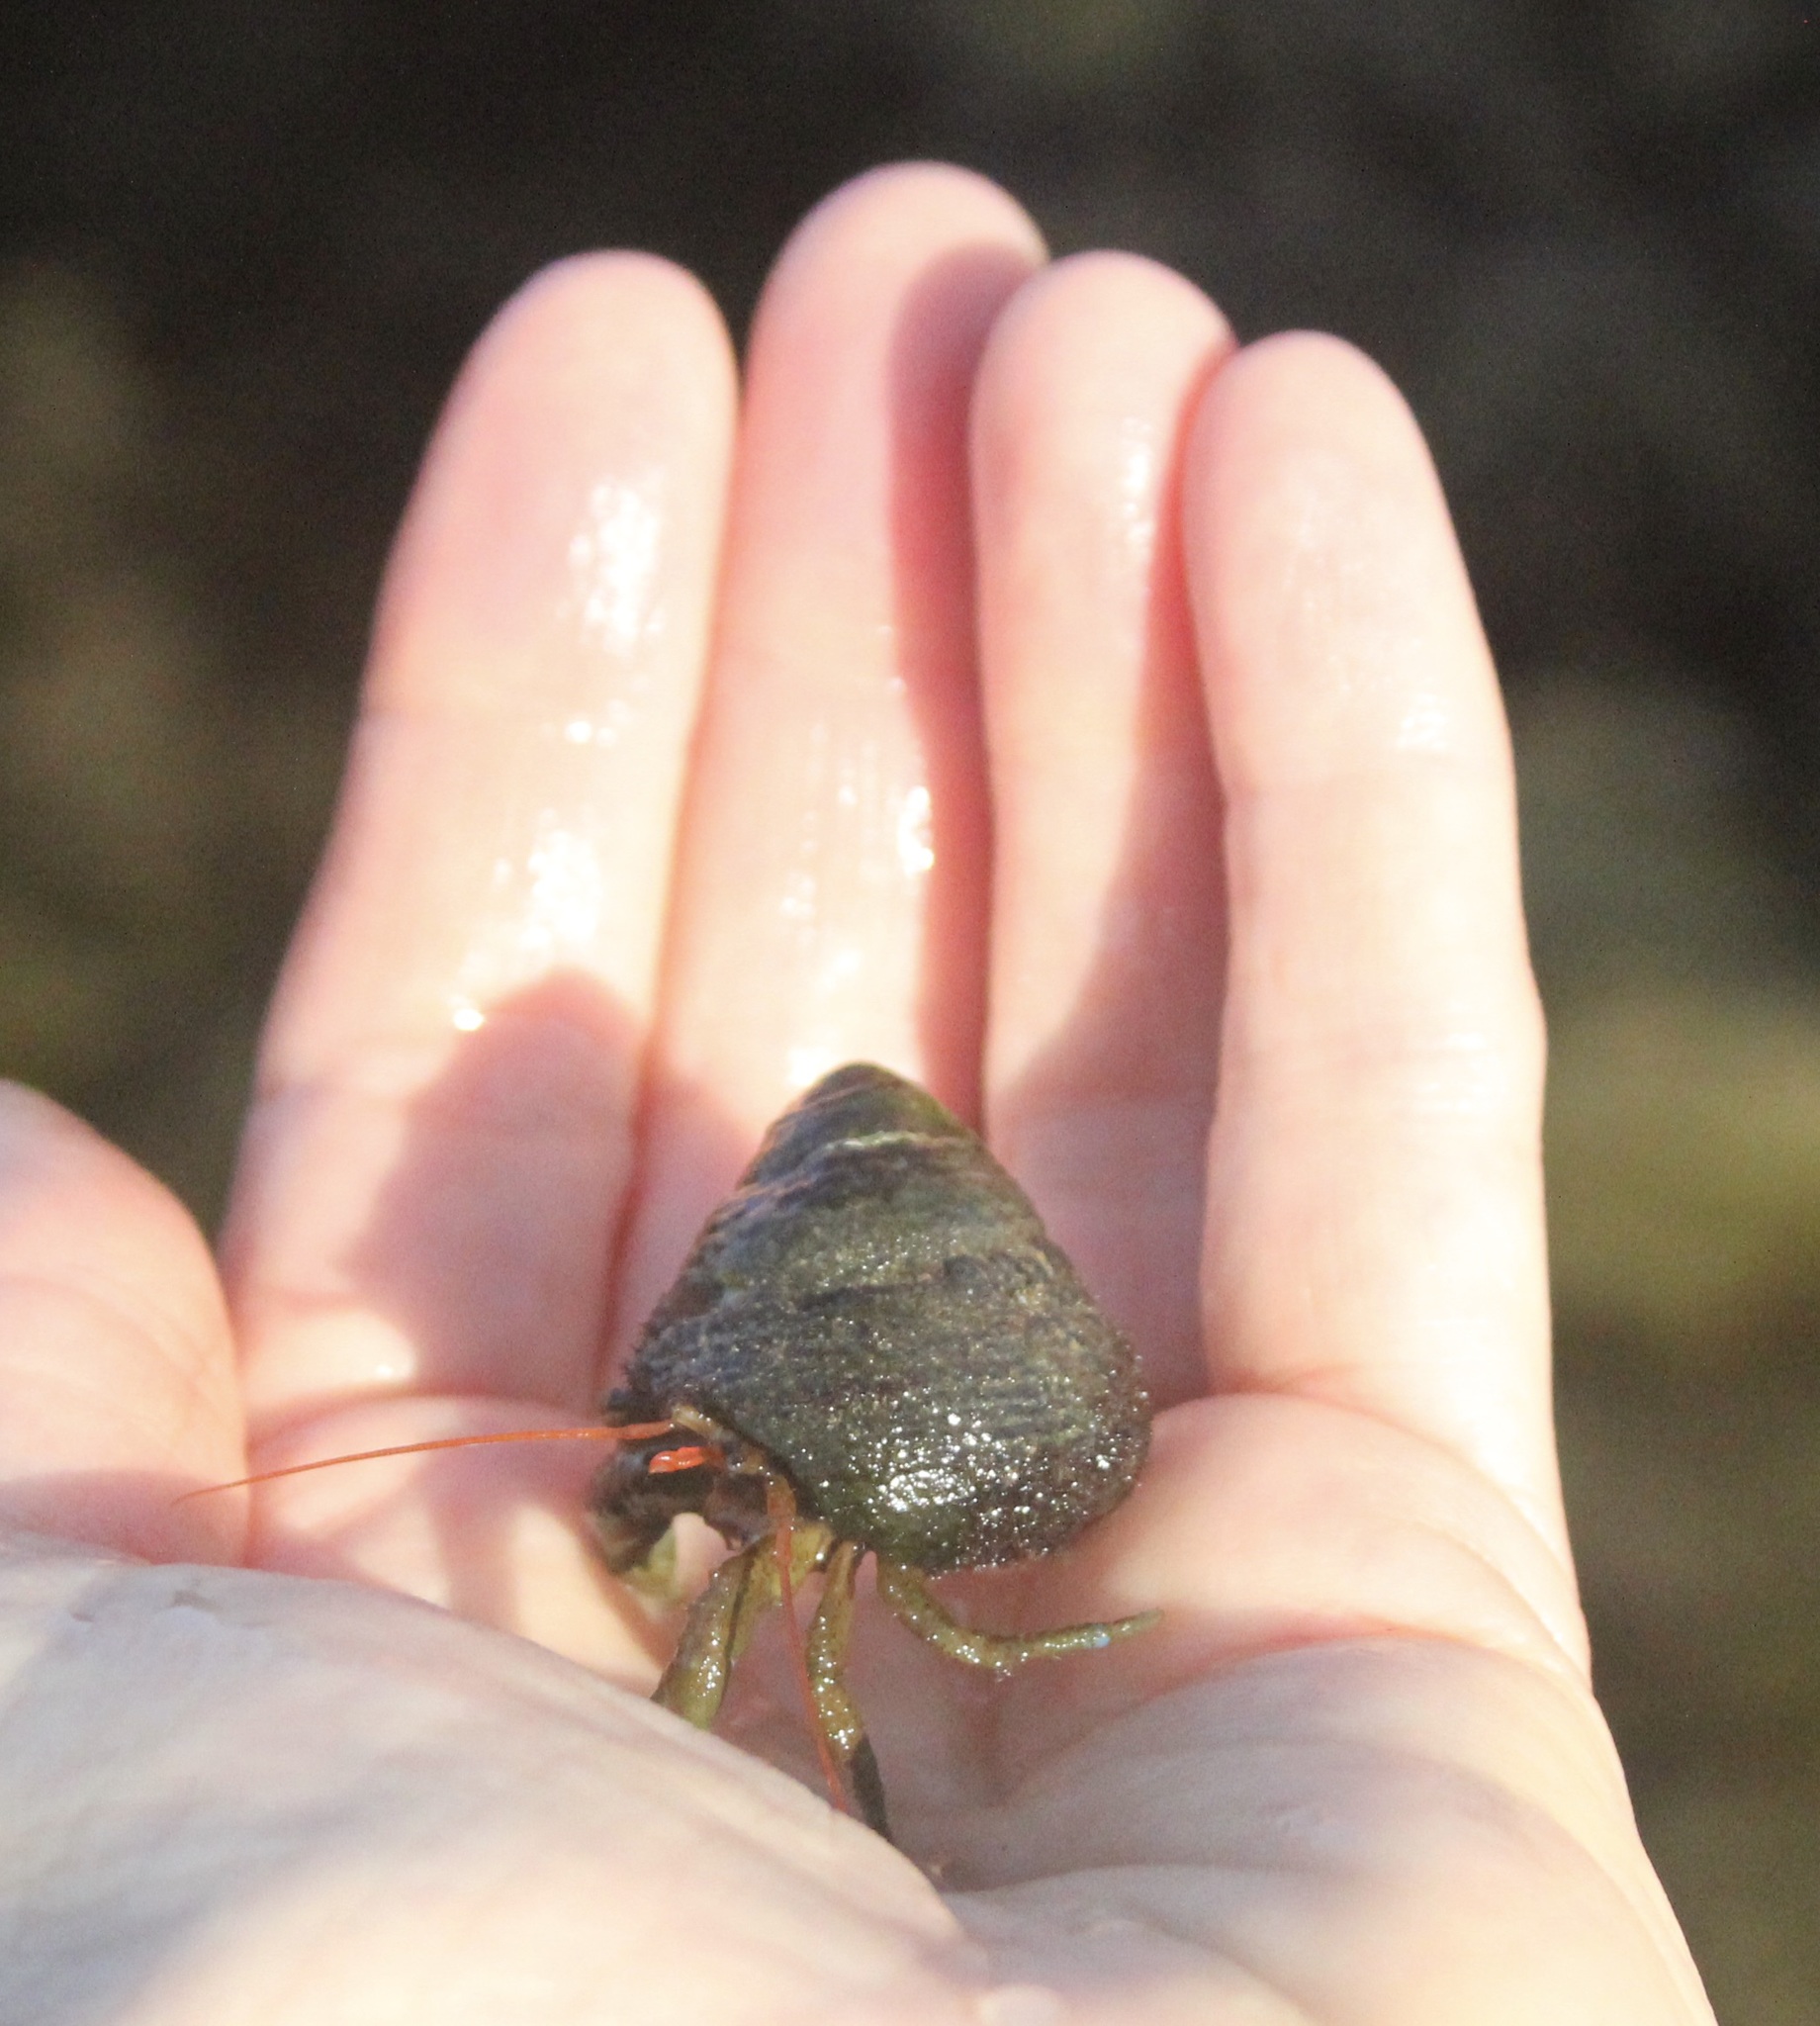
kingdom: Animalia
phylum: Arthropoda
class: Malacostraca
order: Decapoda
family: Paguridae
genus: Pagurus
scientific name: Pagurus samuelis
